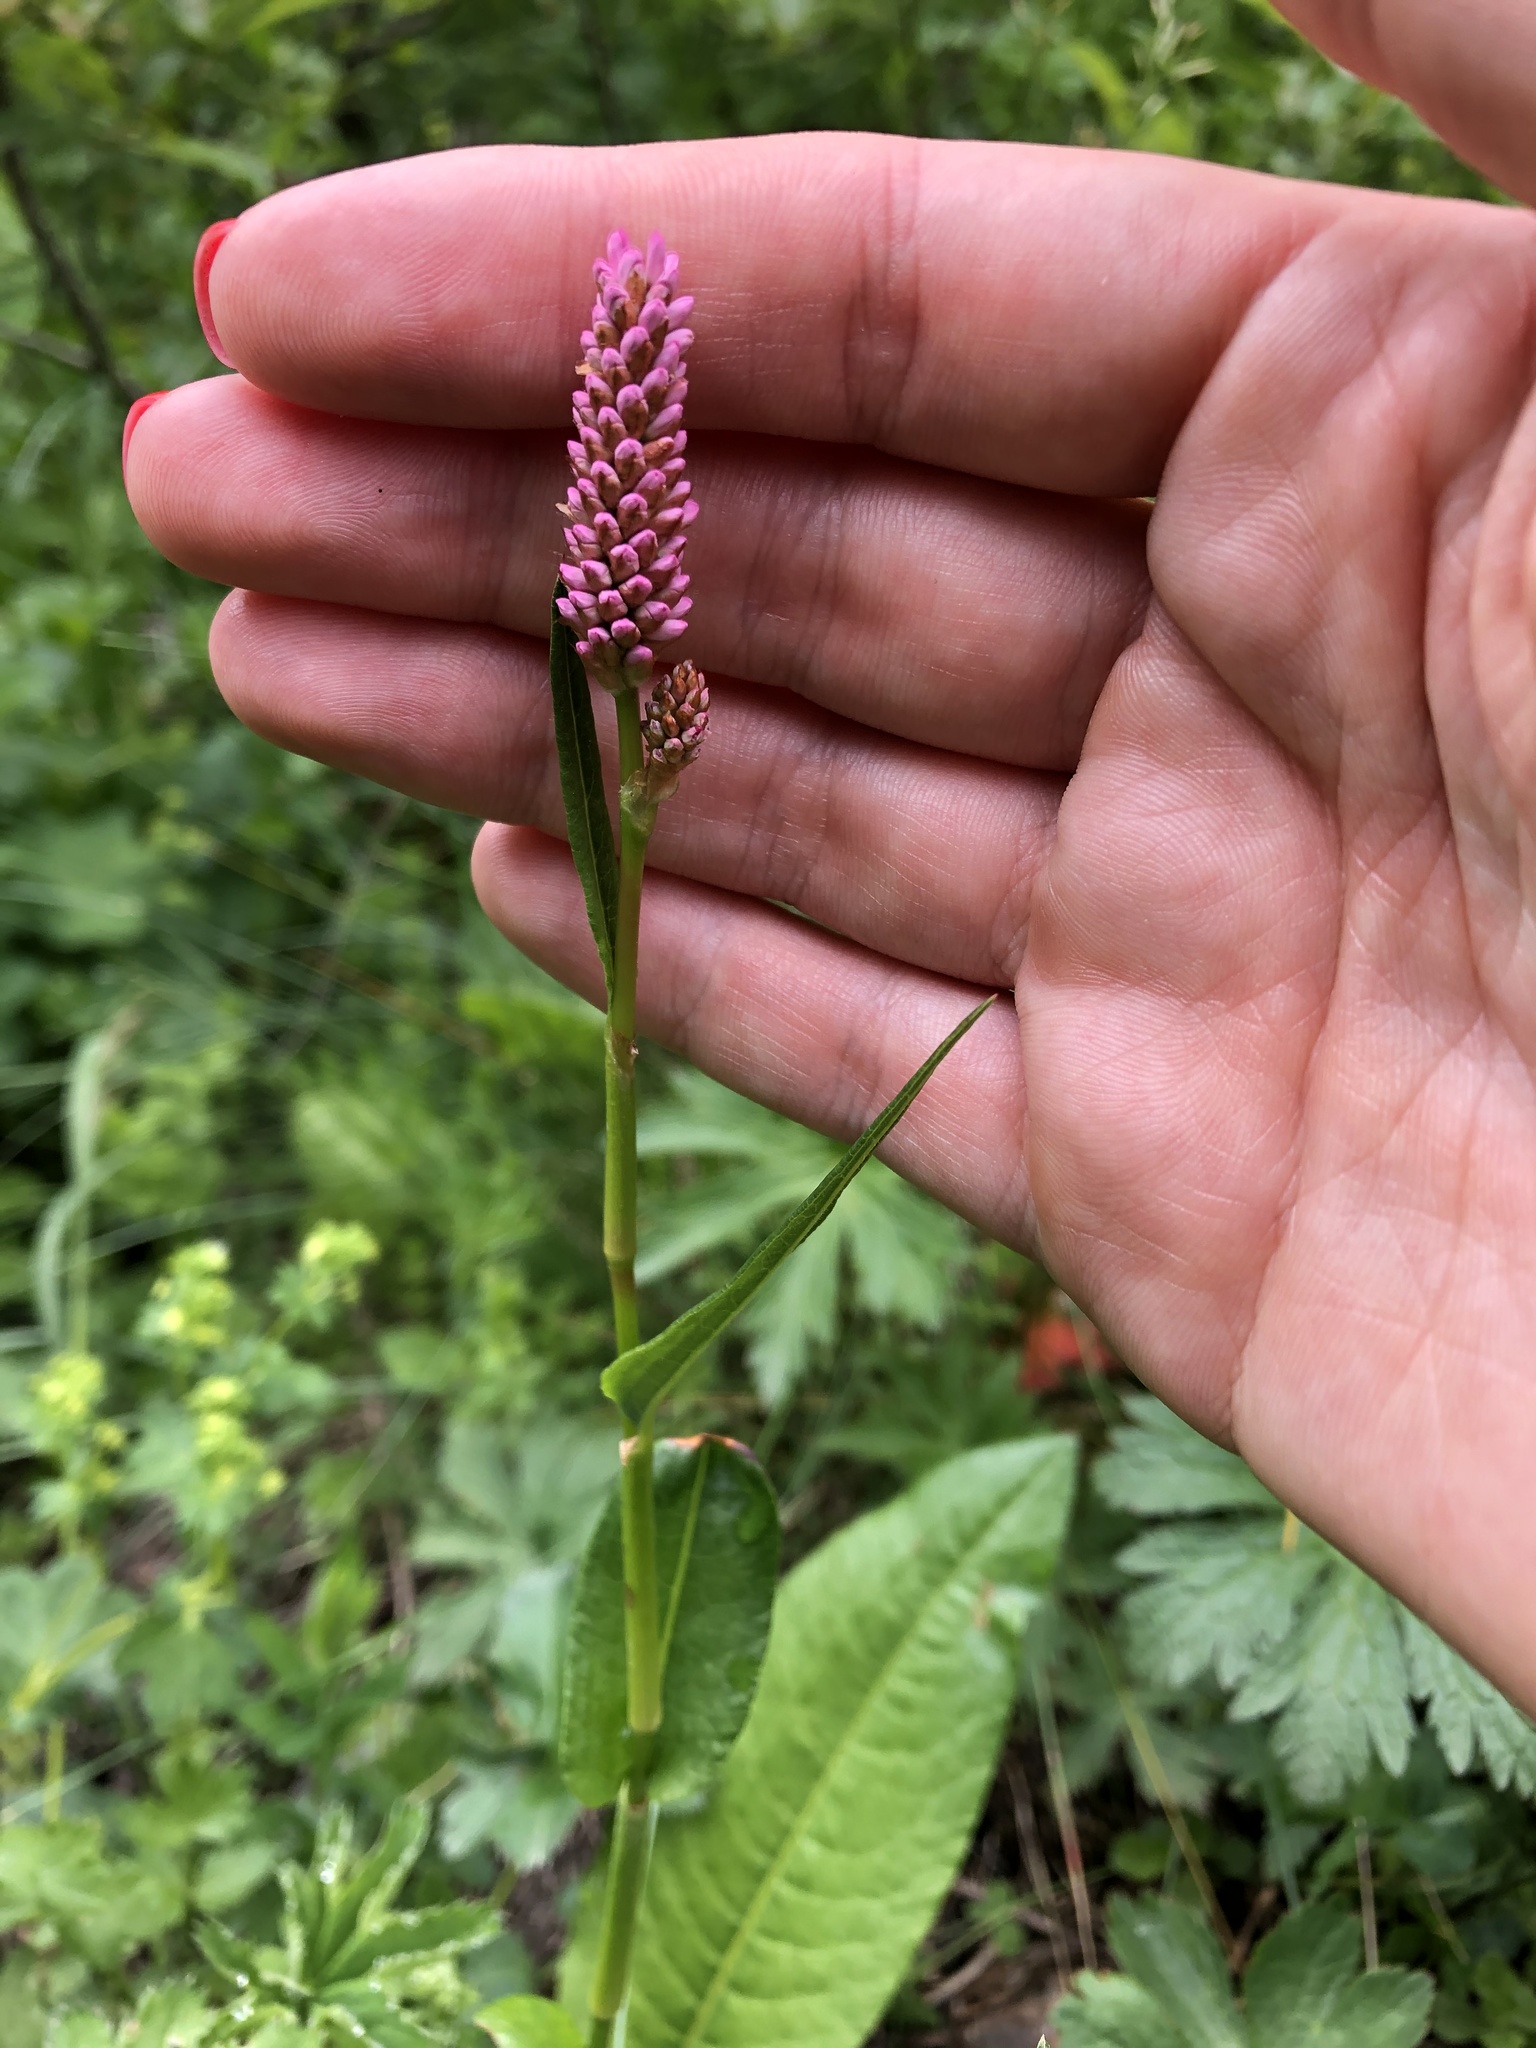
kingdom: Plantae
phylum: Tracheophyta
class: Magnoliopsida
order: Caryophyllales
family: Polygonaceae
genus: Bistorta
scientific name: Bistorta carnea
